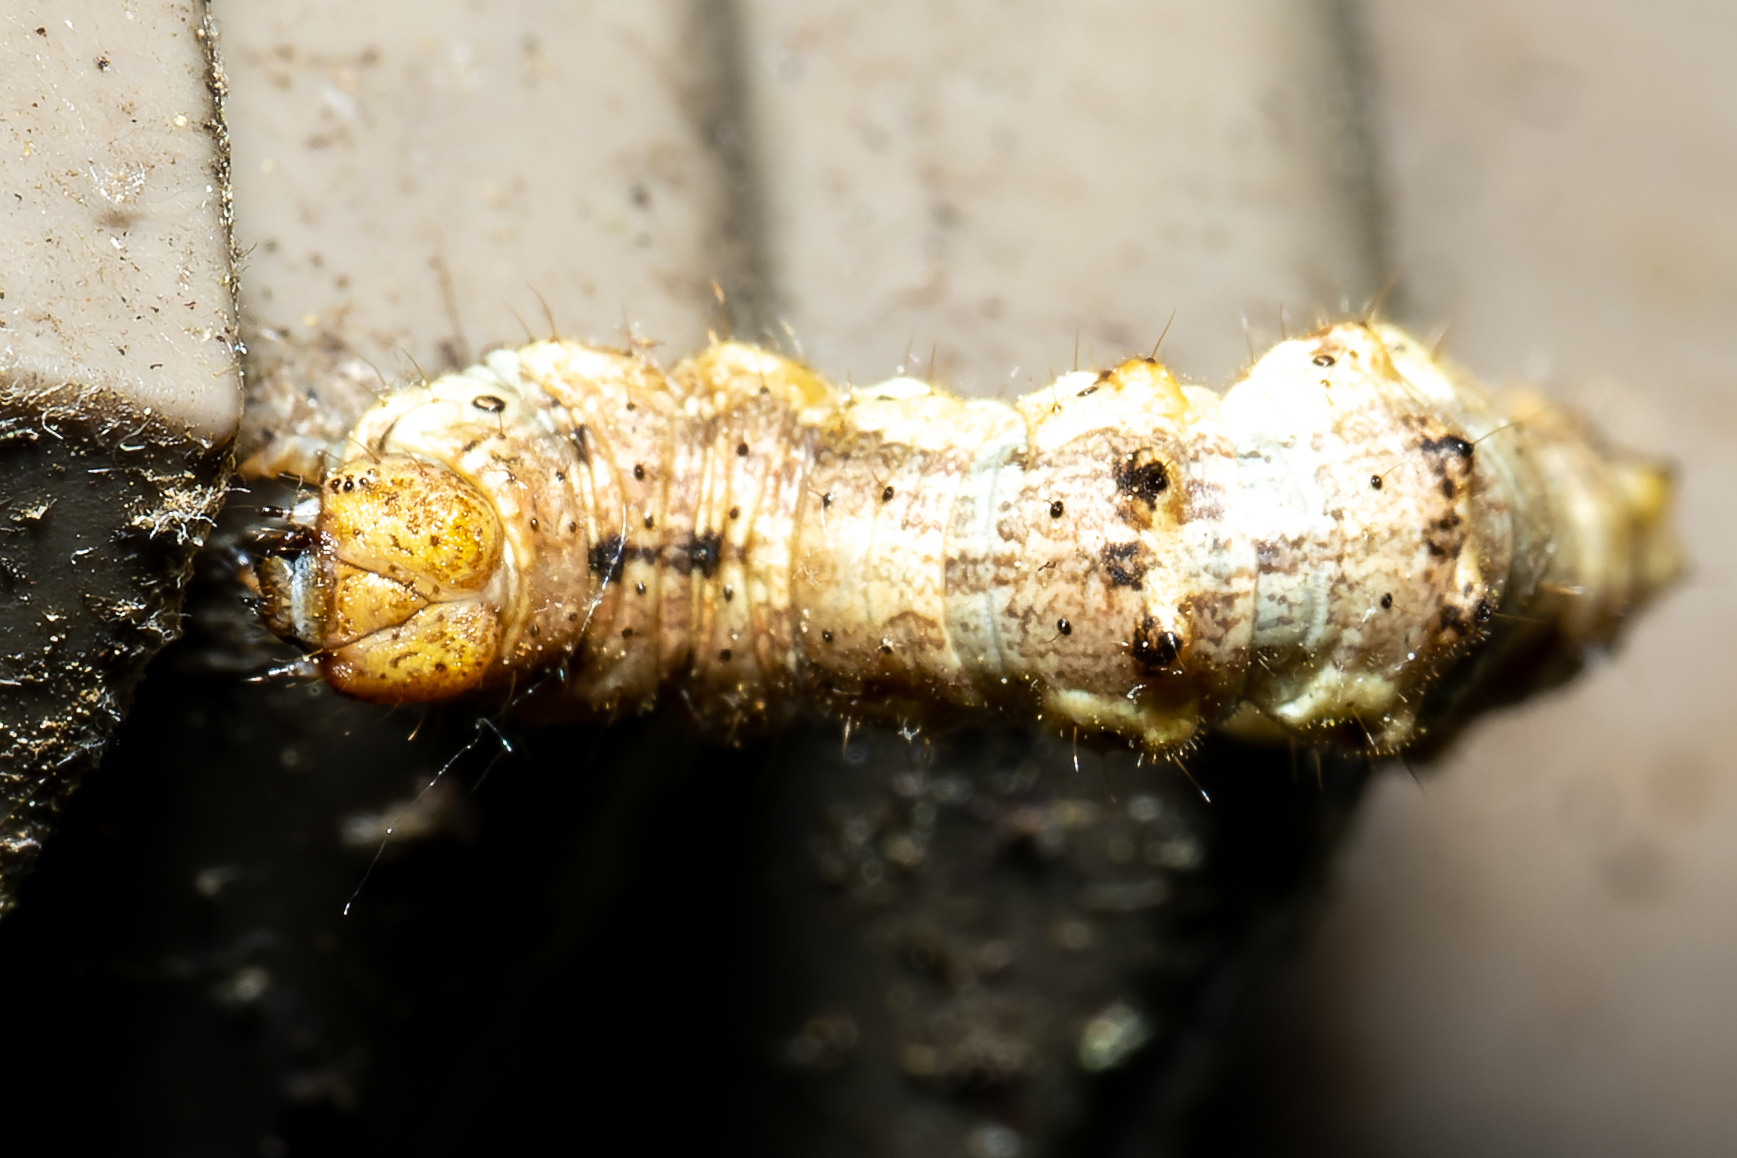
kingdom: Animalia
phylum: Arthropoda
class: Insecta
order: Lepidoptera
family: Geometridae
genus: Phigalia
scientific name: Phigalia strigataria
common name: Small phigalia
